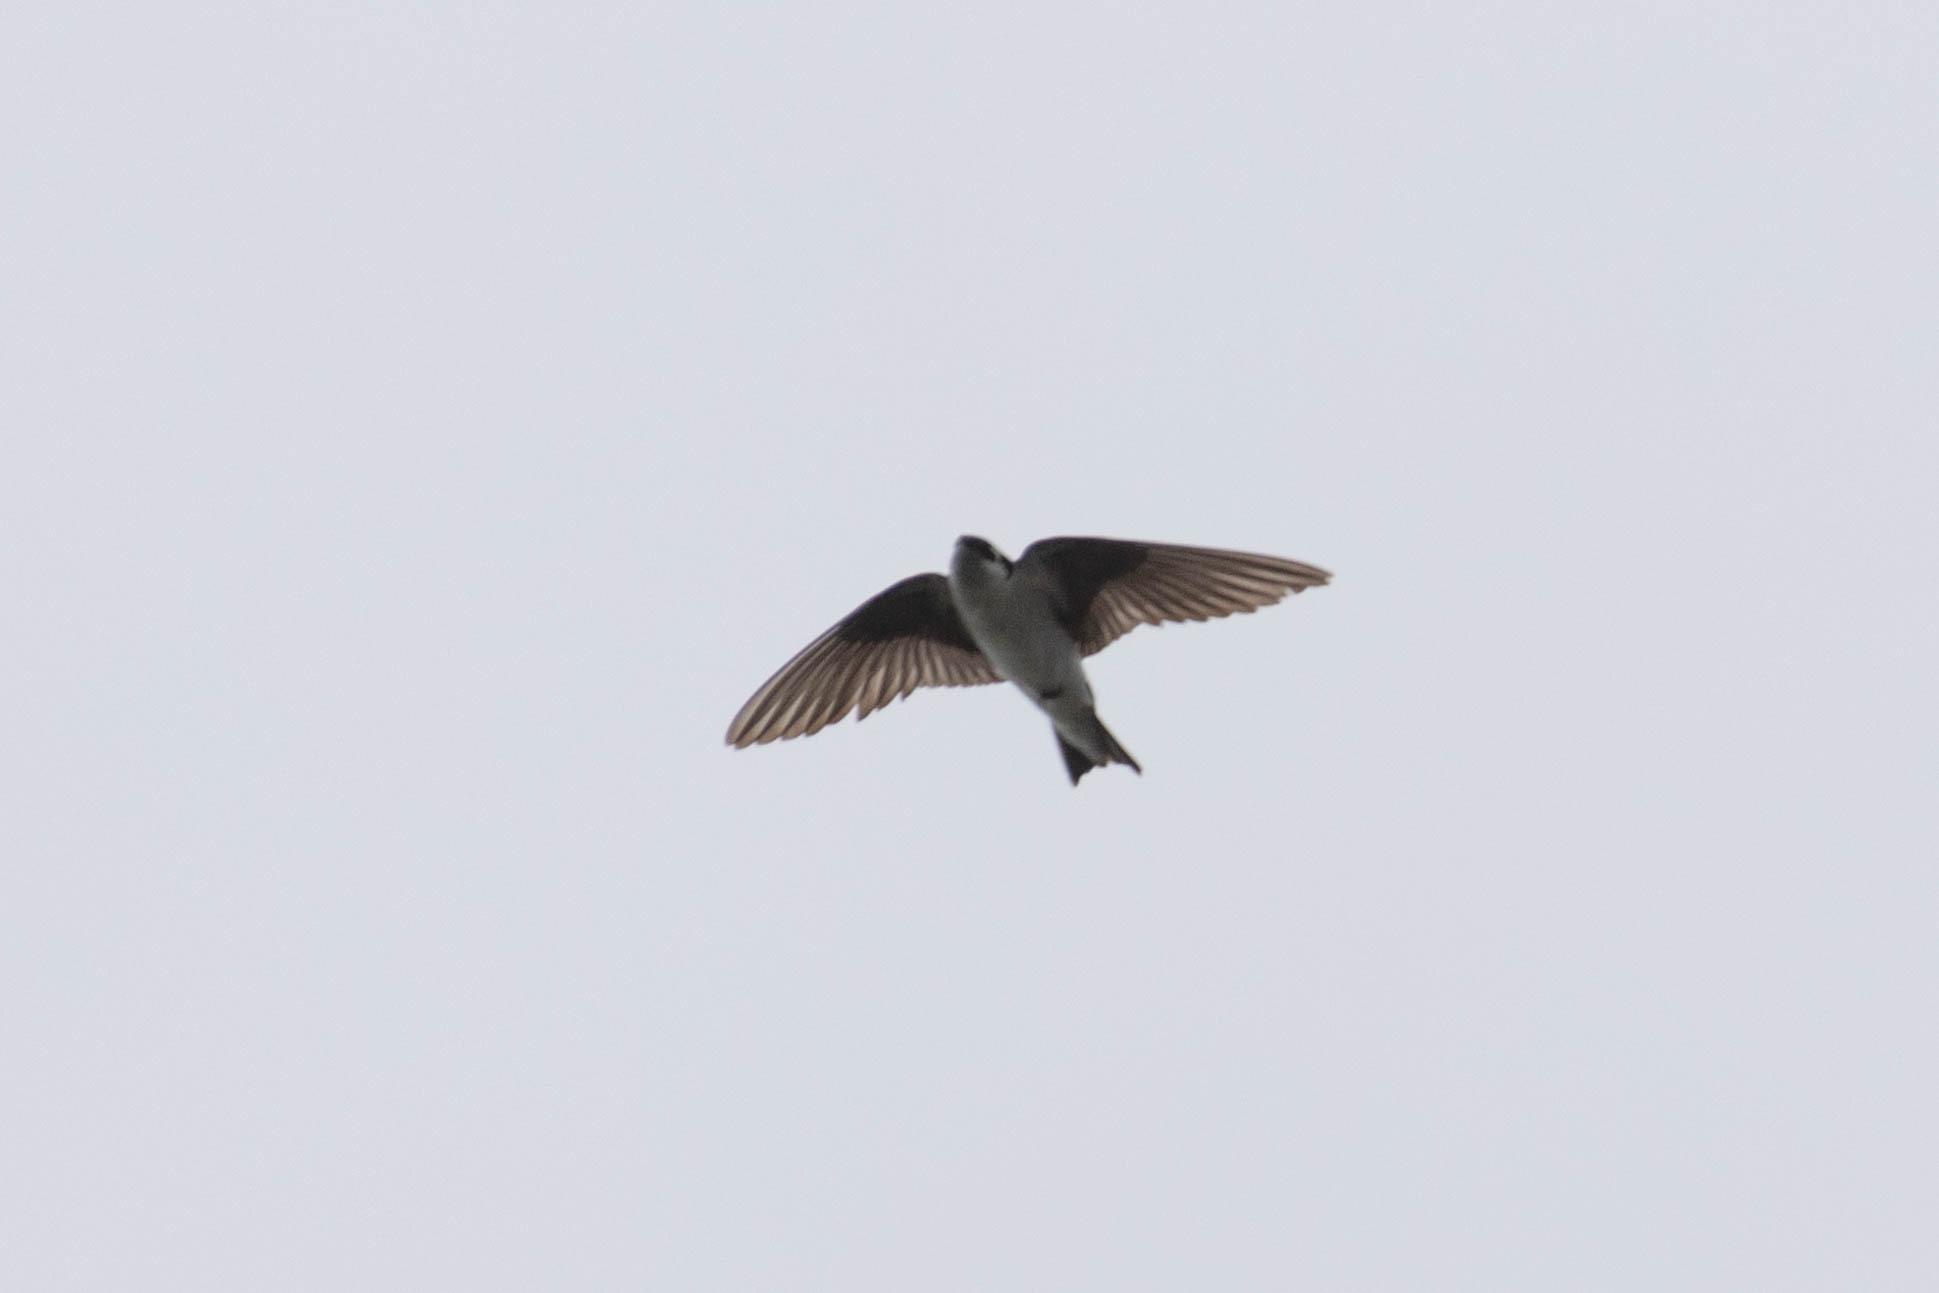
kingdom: Animalia
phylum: Chordata
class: Aves
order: Passeriformes
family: Hirundinidae
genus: Tachycineta
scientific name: Tachycineta thalassina
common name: Violet-green swallow
